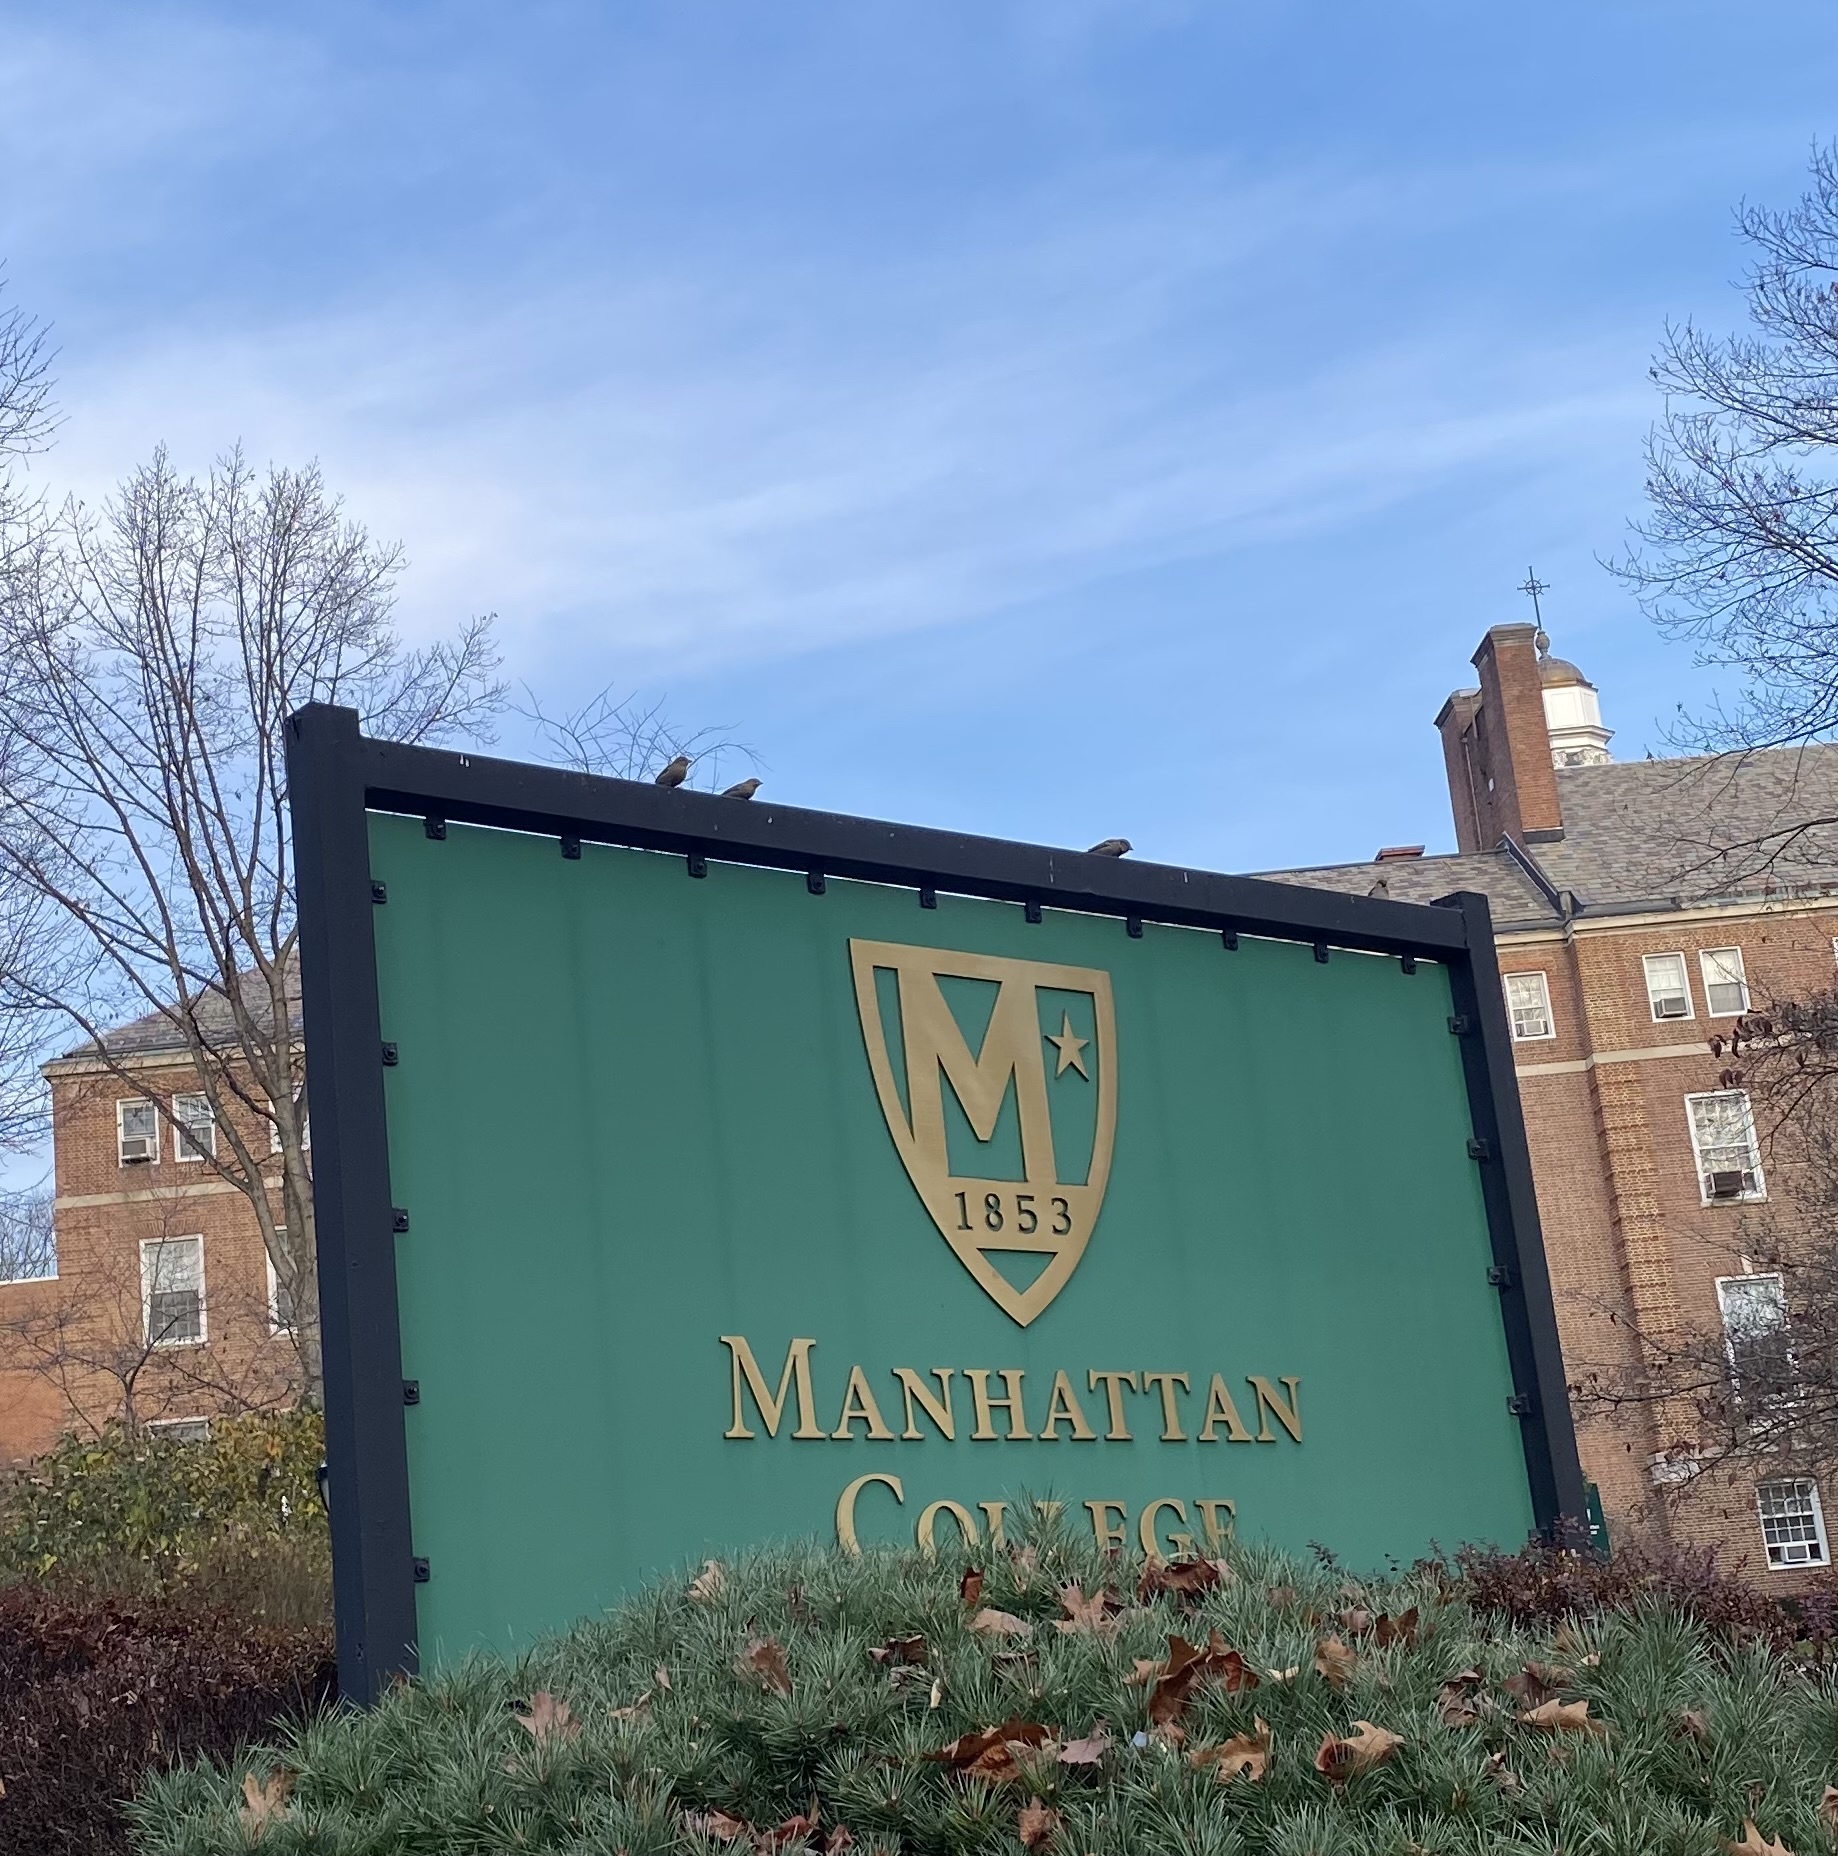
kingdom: Animalia
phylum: Chordata
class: Aves
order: Passeriformes
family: Passeridae
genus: Passer
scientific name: Passer domesticus
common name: House sparrow
